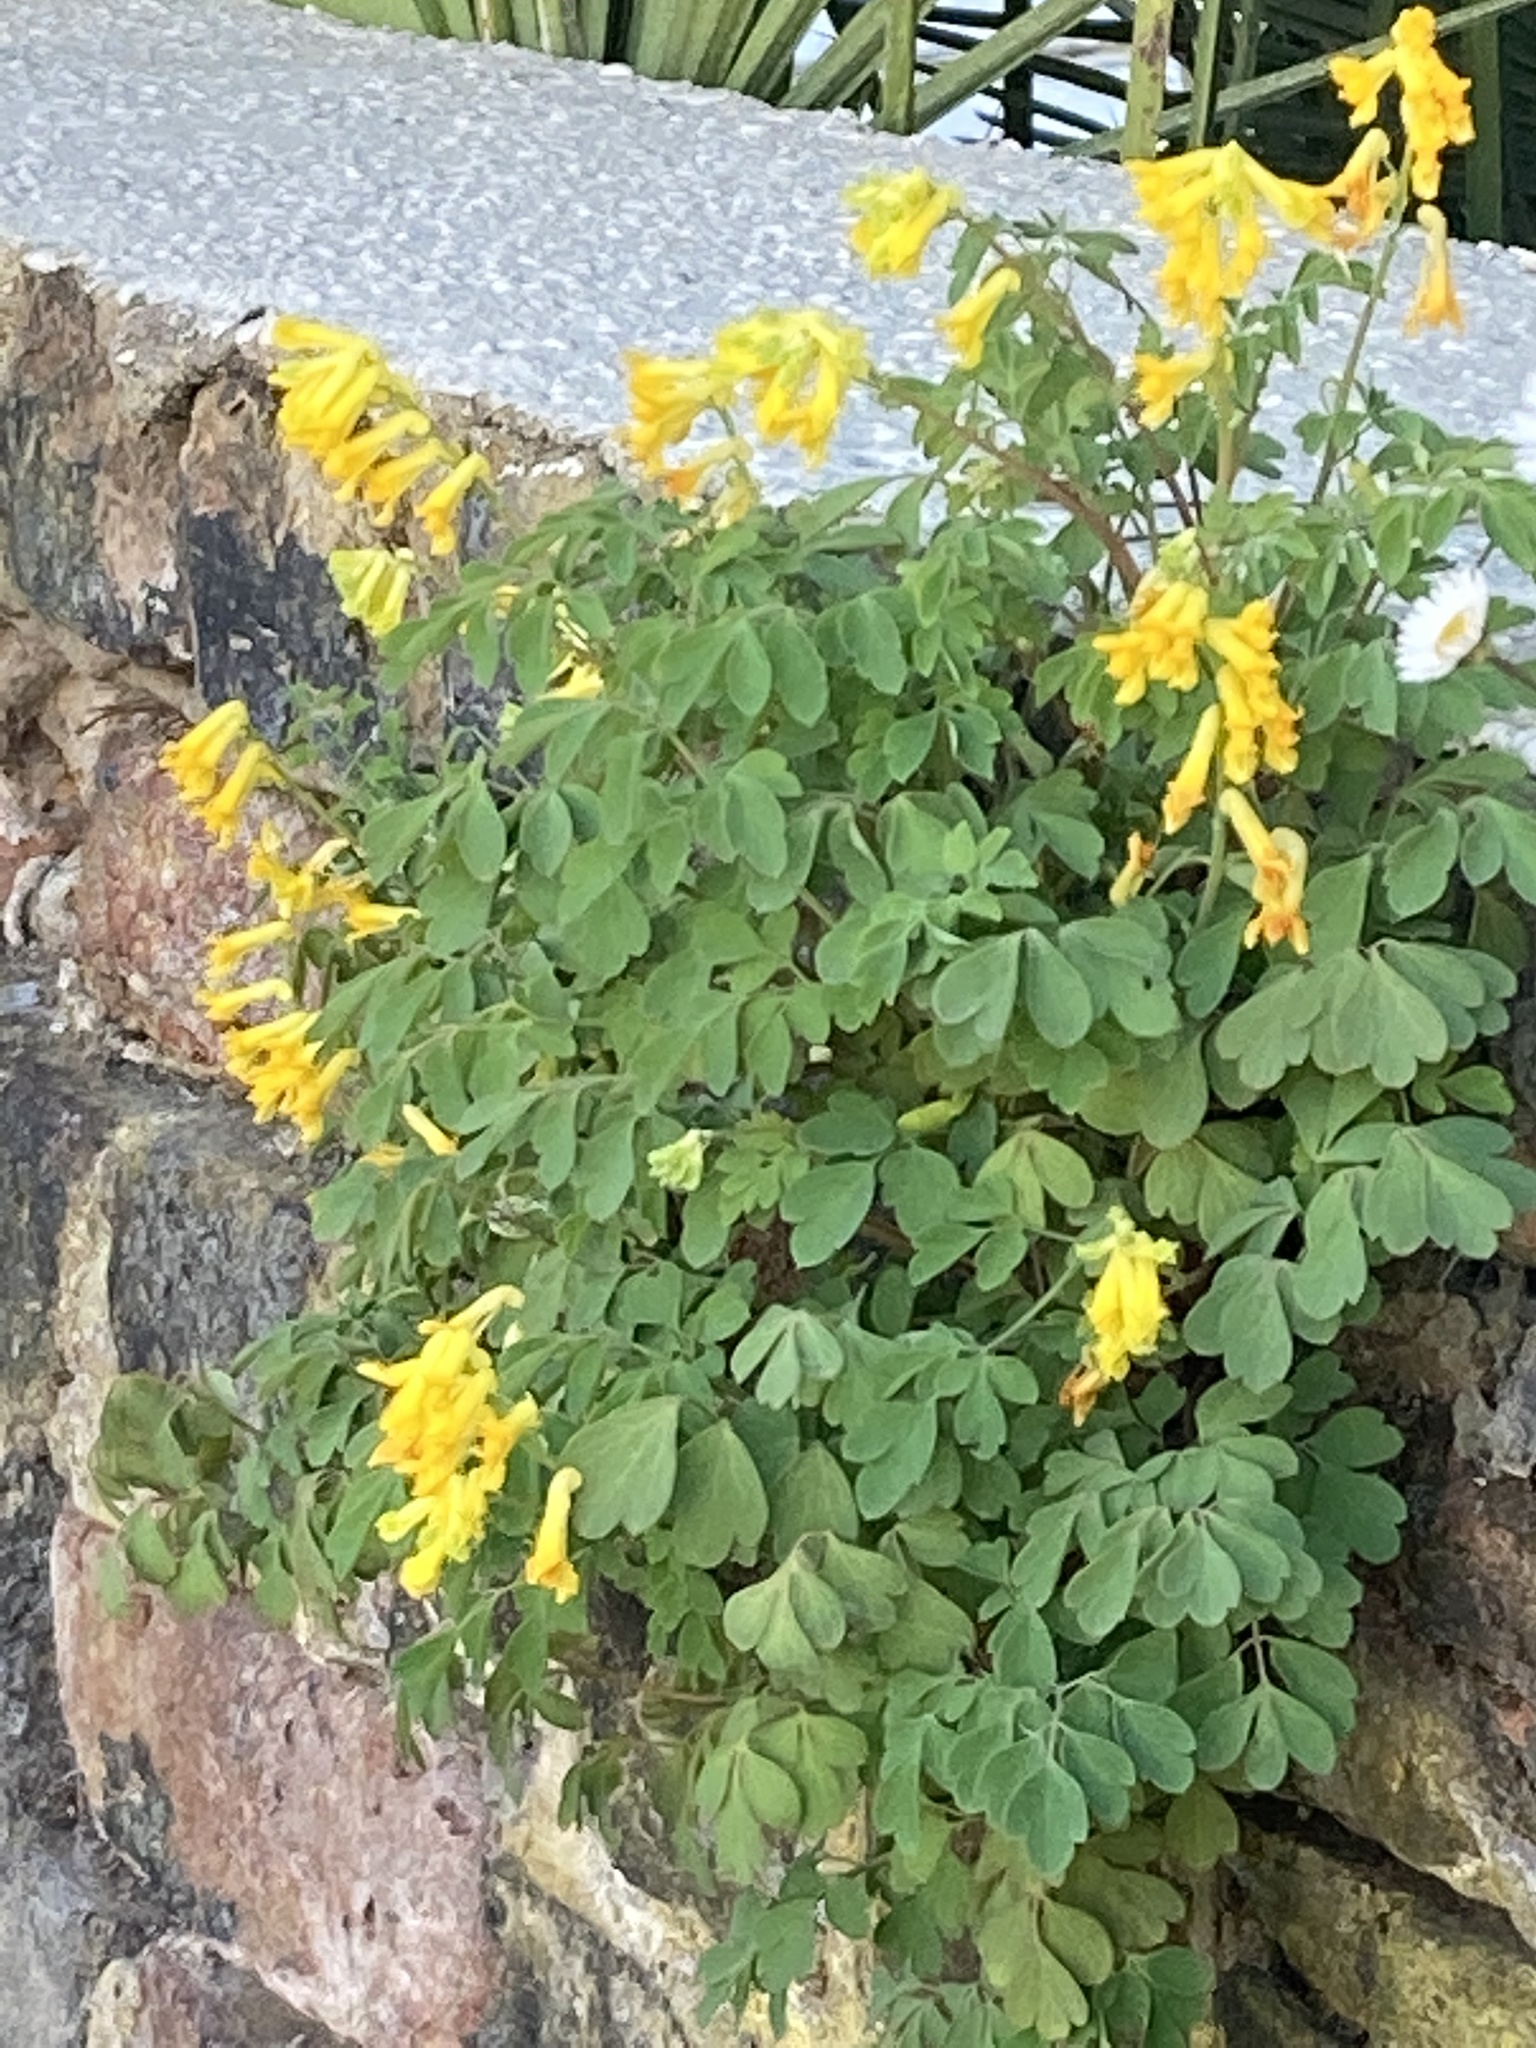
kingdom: Plantae
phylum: Tracheophyta
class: Magnoliopsida
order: Ranunculales
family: Papaveraceae
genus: Pseudofumaria
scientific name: Pseudofumaria lutea
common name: Yellow corydalis
